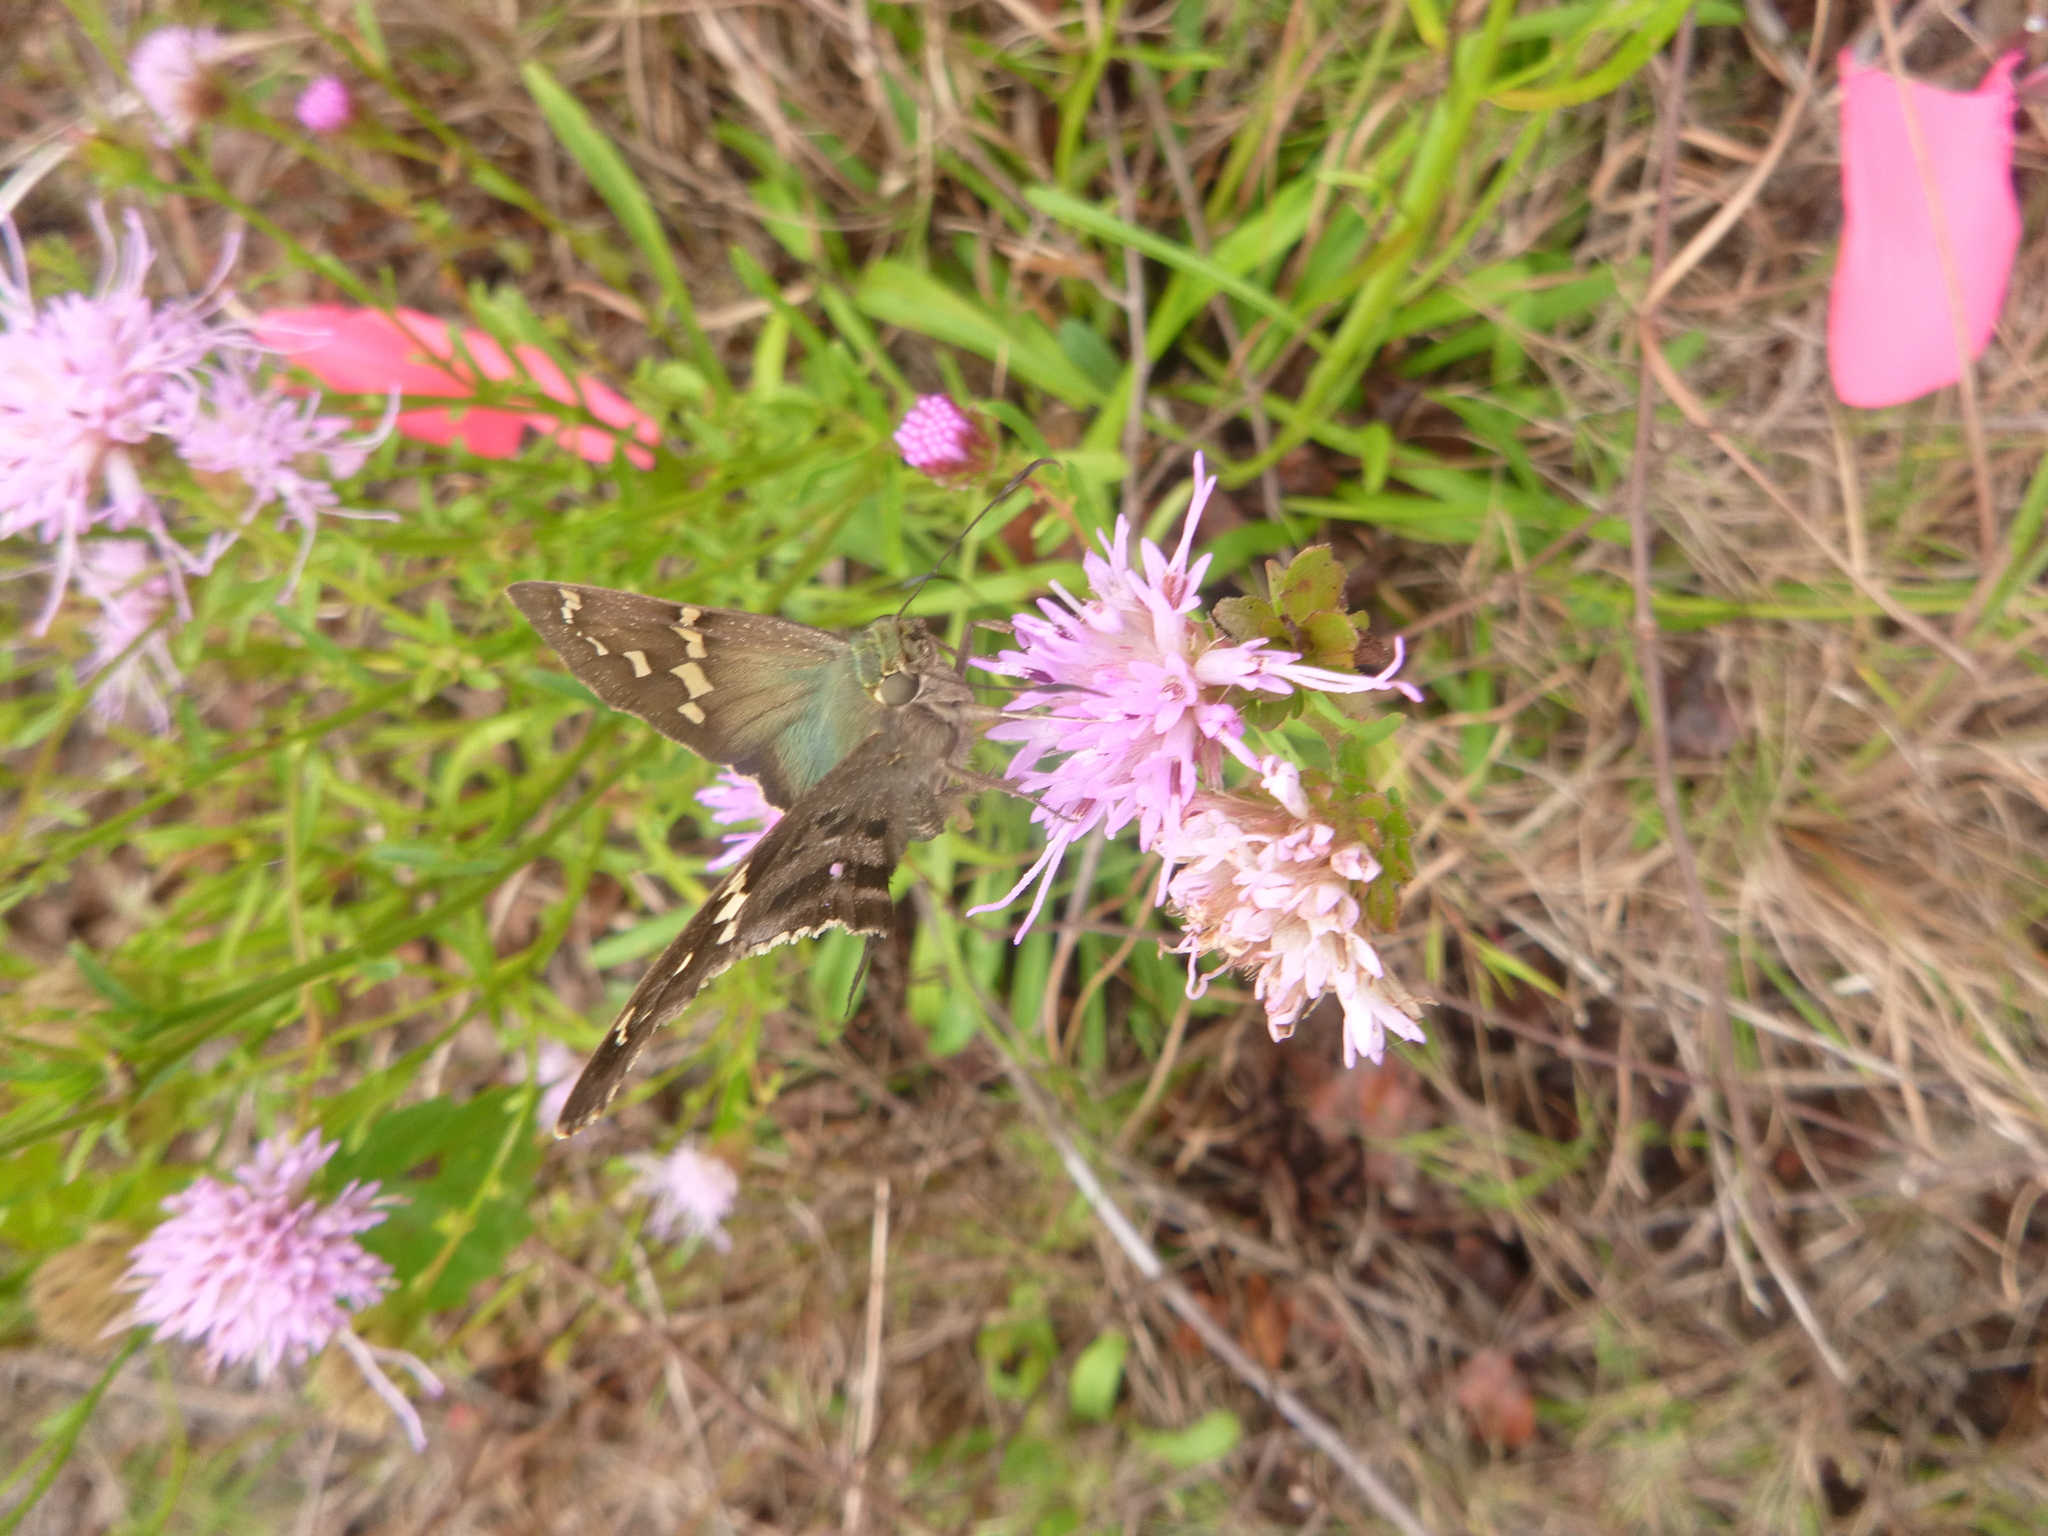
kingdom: Animalia
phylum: Arthropoda
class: Insecta
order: Lepidoptera
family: Hesperiidae
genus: Urbanus
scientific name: Urbanus proteus
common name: Long-tailed skipper
